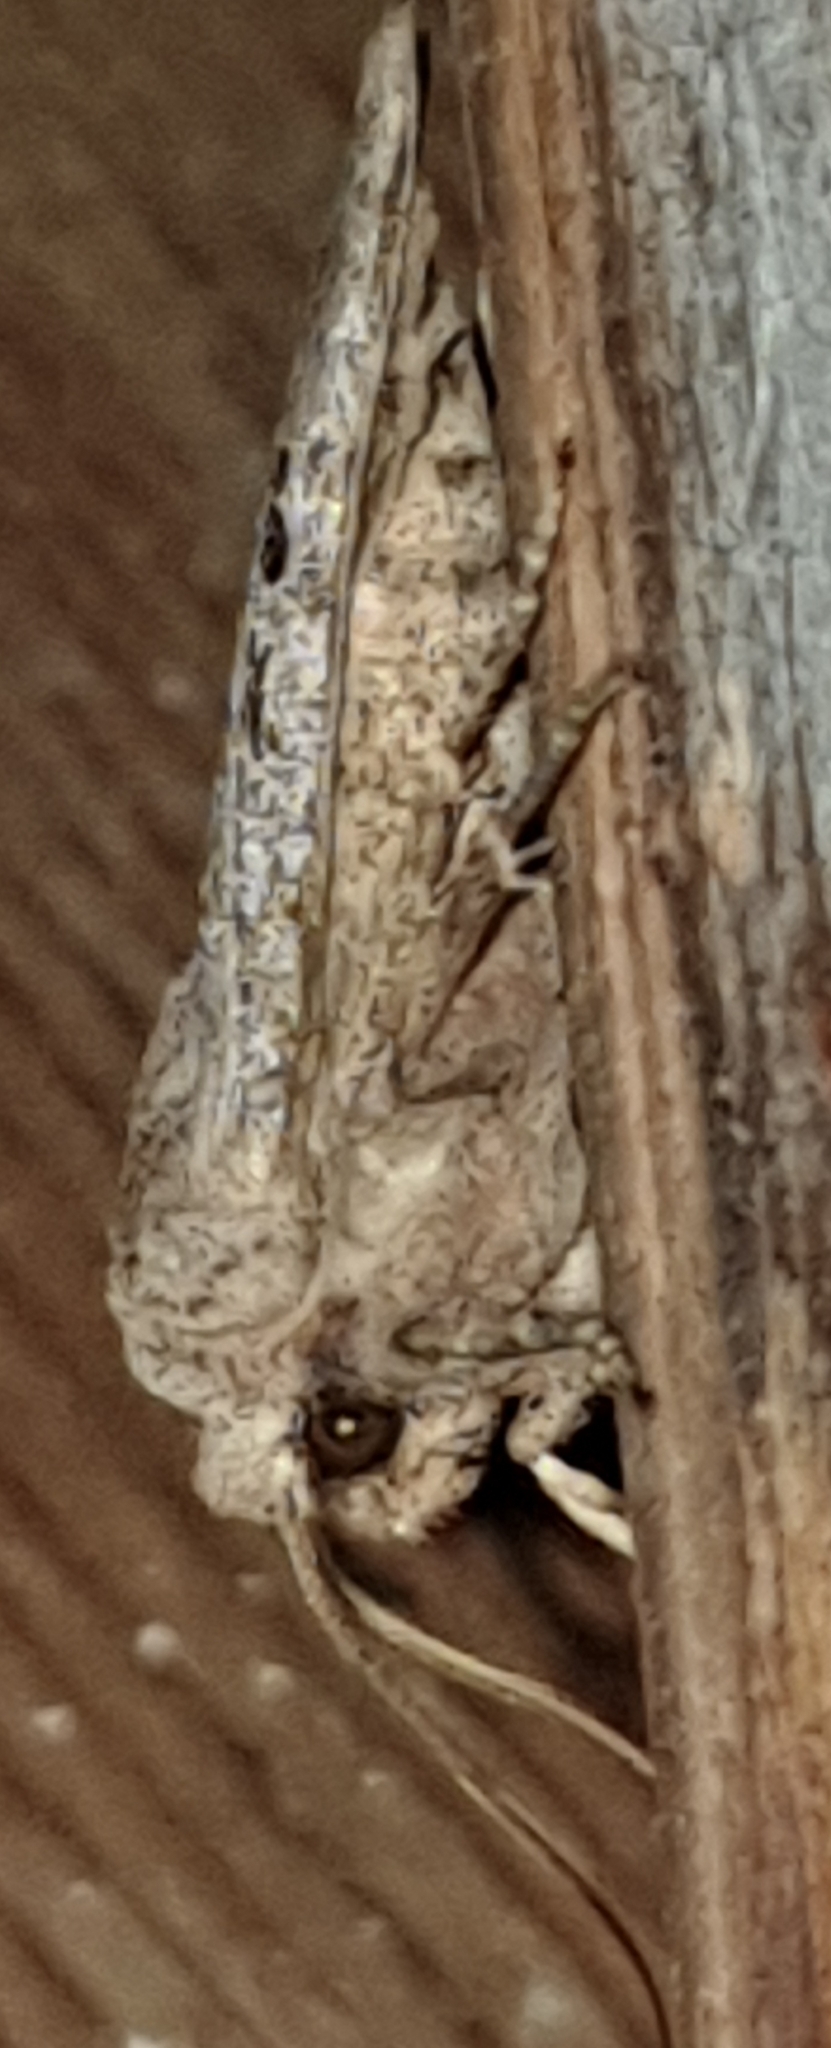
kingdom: Animalia
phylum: Arthropoda
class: Insecta
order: Lepidoptera
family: Noctuidae
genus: Conistra
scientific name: Conistra rubiginosa
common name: Black-spotted chestnut
